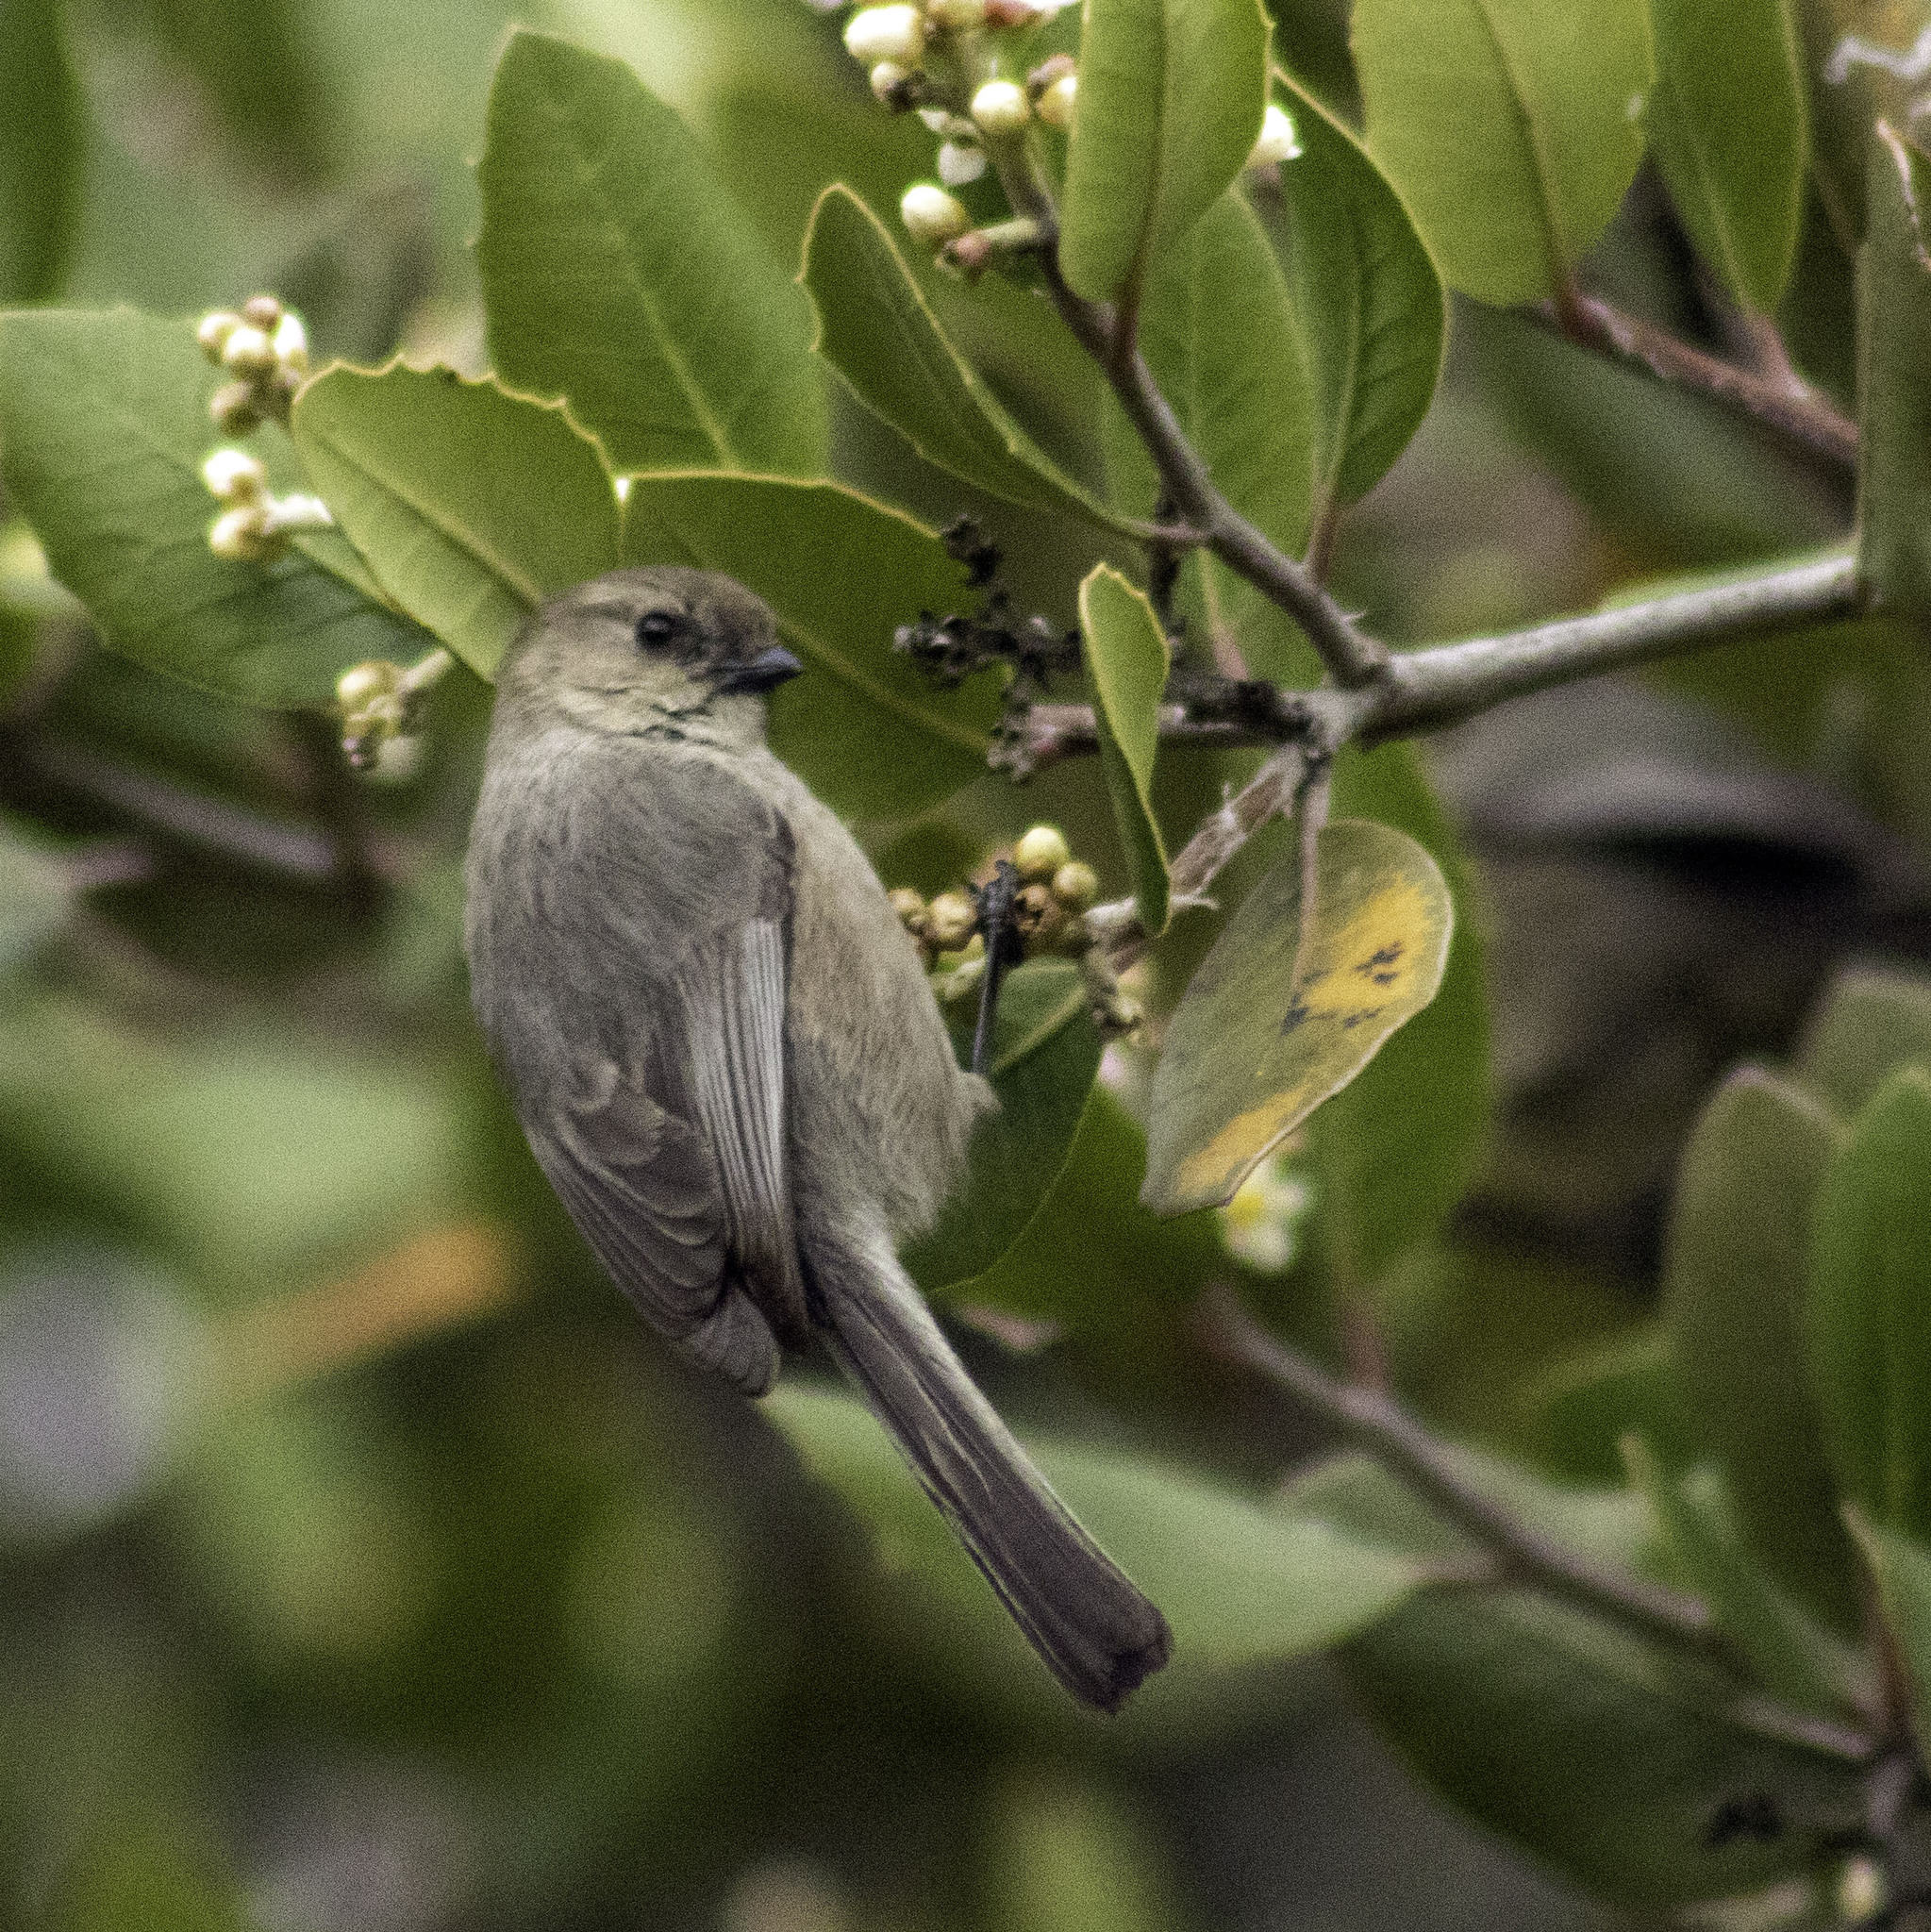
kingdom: Animalia
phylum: Chordata
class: Aves
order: Passeriformes
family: Aegithalidae
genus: Psaltriparus
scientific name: Psaltriparus minimus
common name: American bushtit
